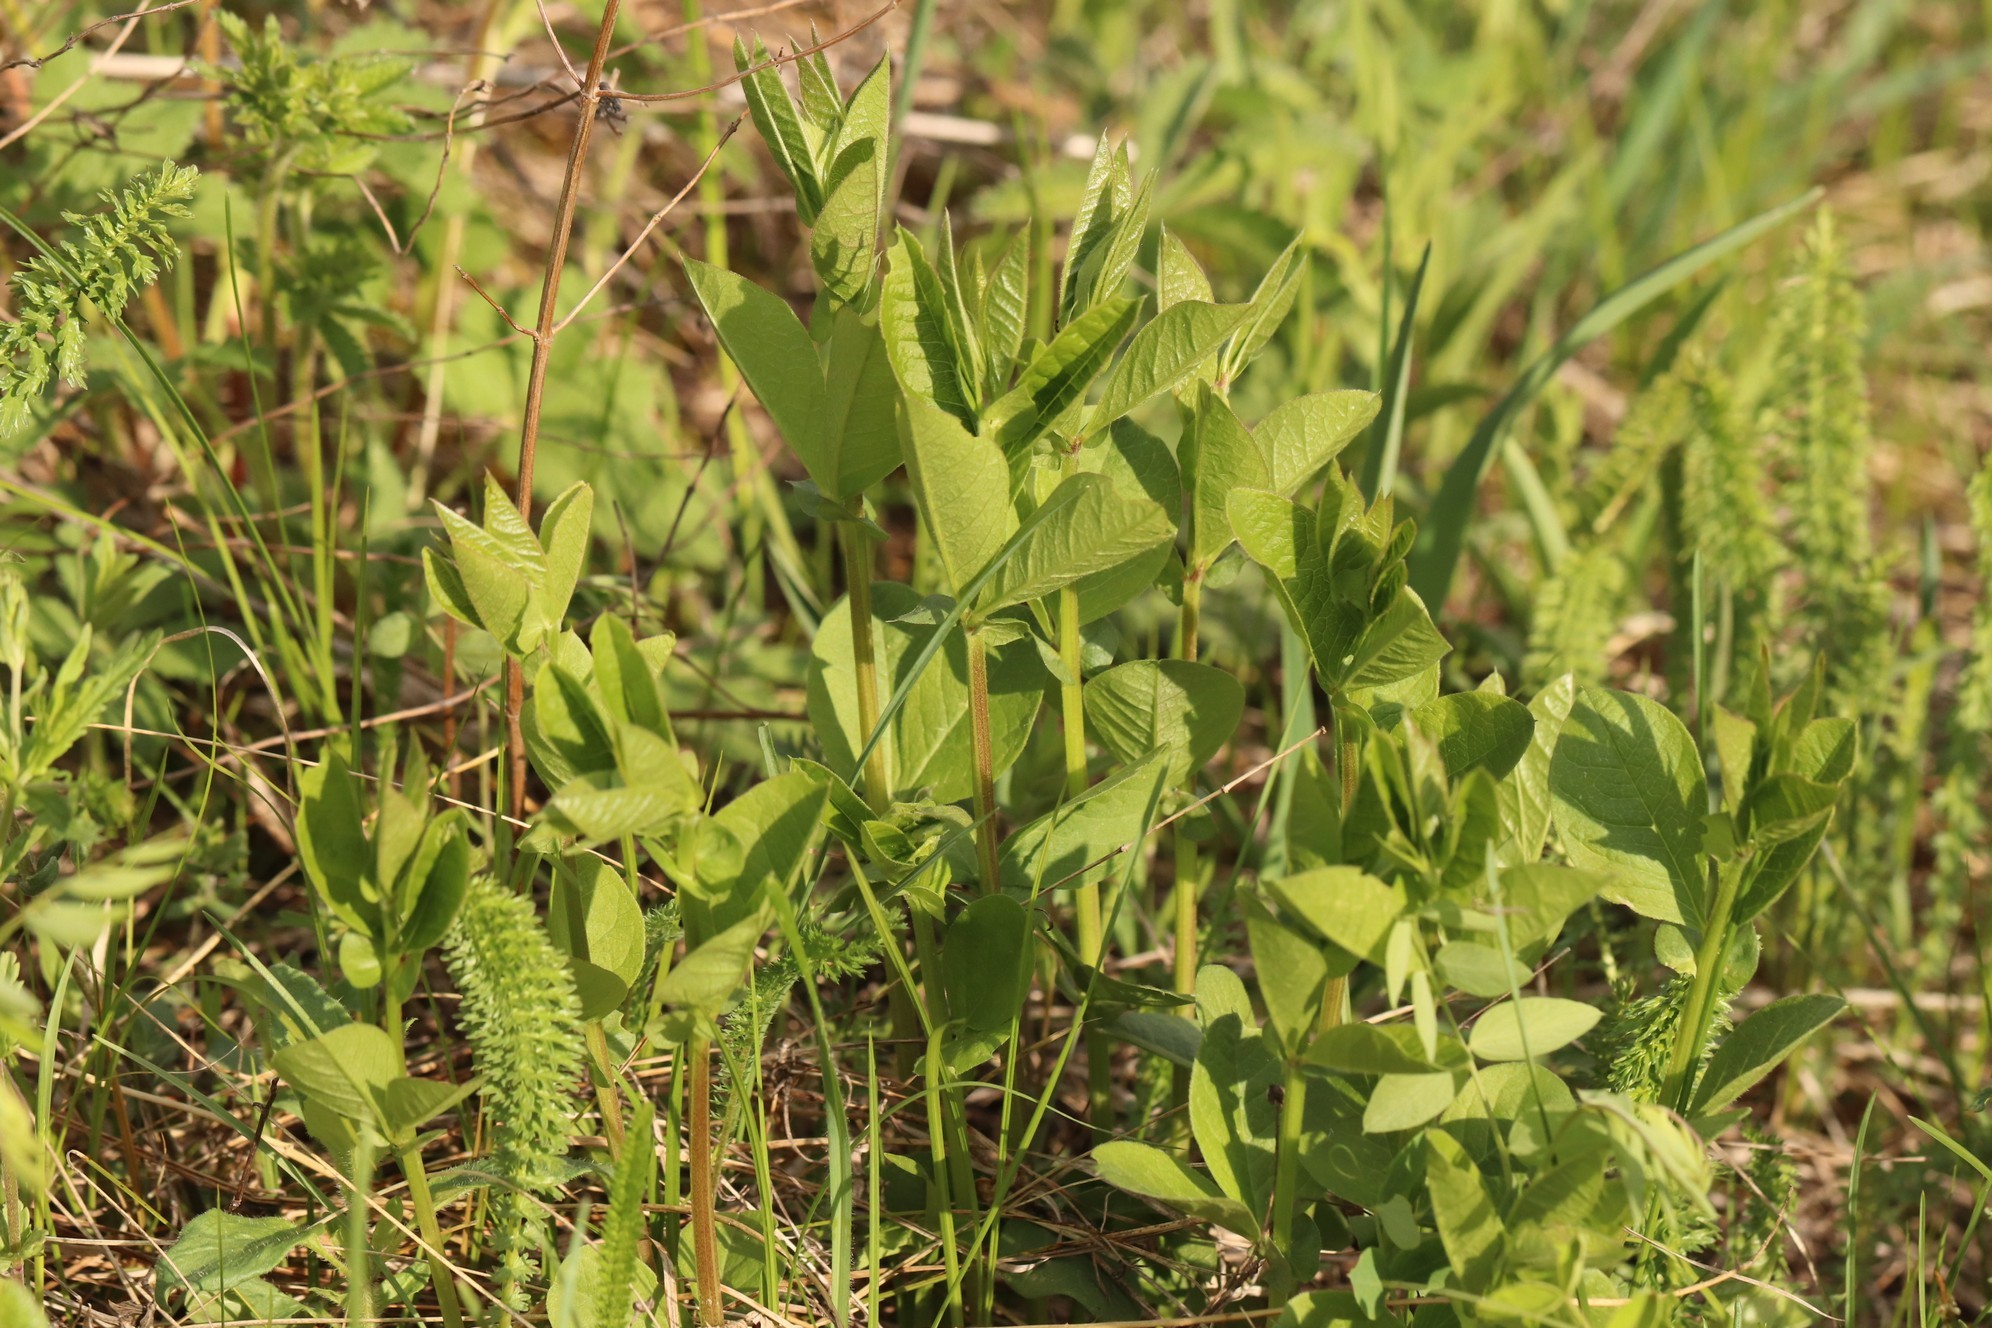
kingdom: Plantae
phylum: Tracheophyta
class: Magnoliopsida
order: Fabales
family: Fabaceae
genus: Vicia
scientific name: Vicia unijuga
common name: Two-leaf vetch
